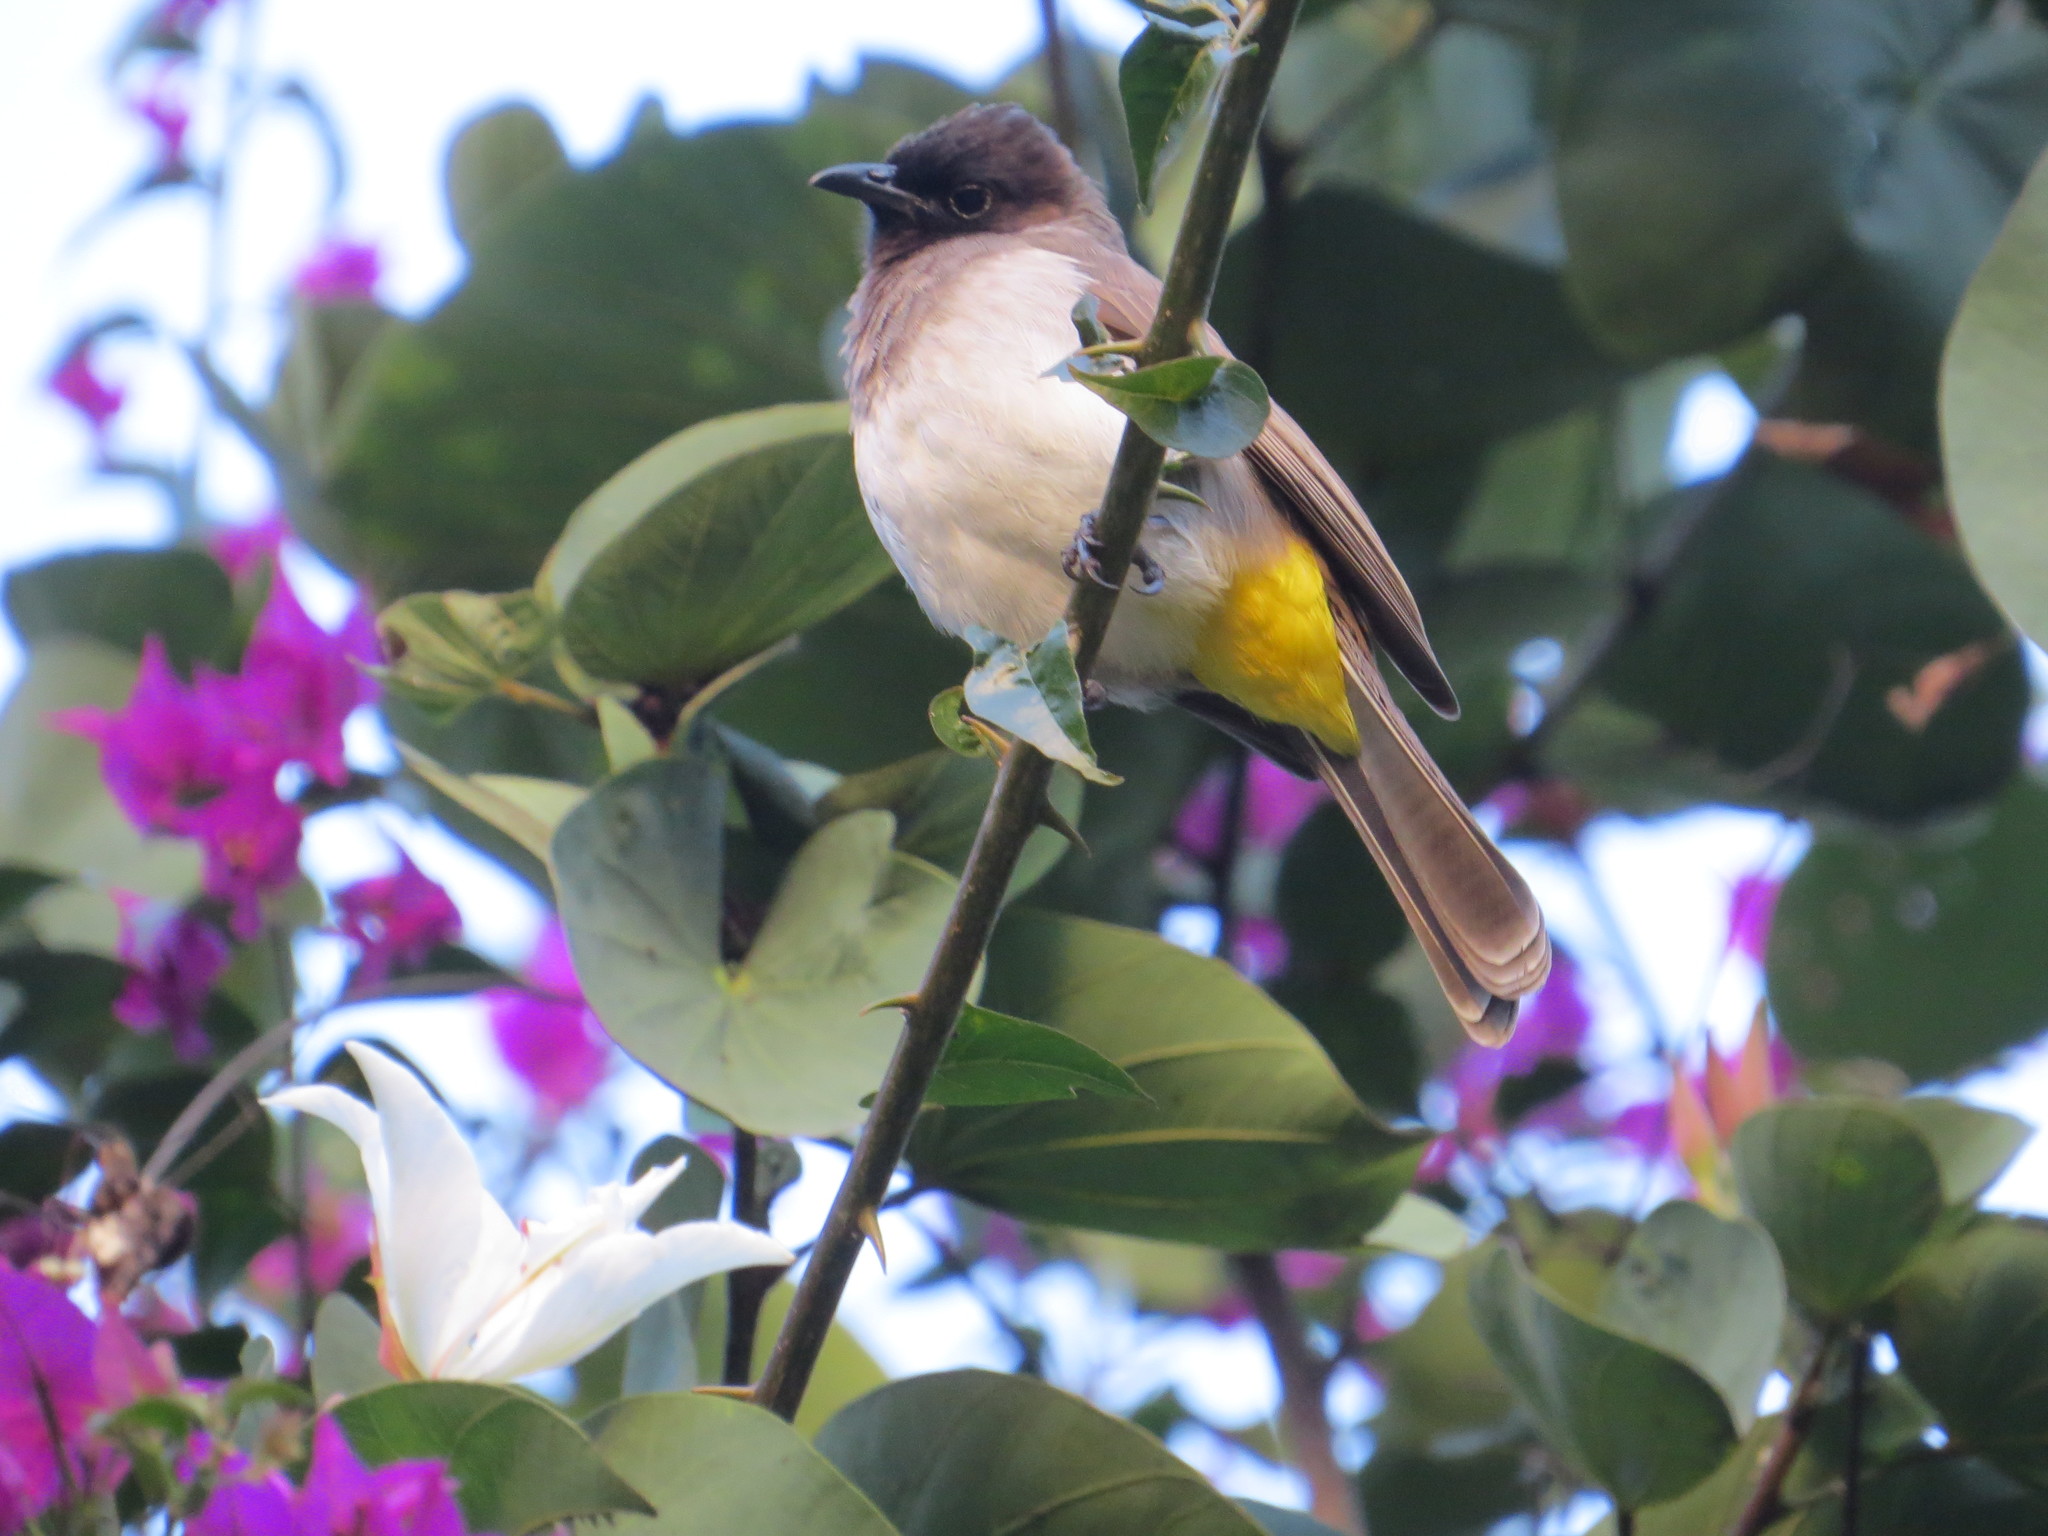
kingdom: Animalia
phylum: Chordata
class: Aves
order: Passeriformes
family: Pycnonotidae
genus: Pycnonotus
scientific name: Pycnonotus barbatus
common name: Common bulbul
